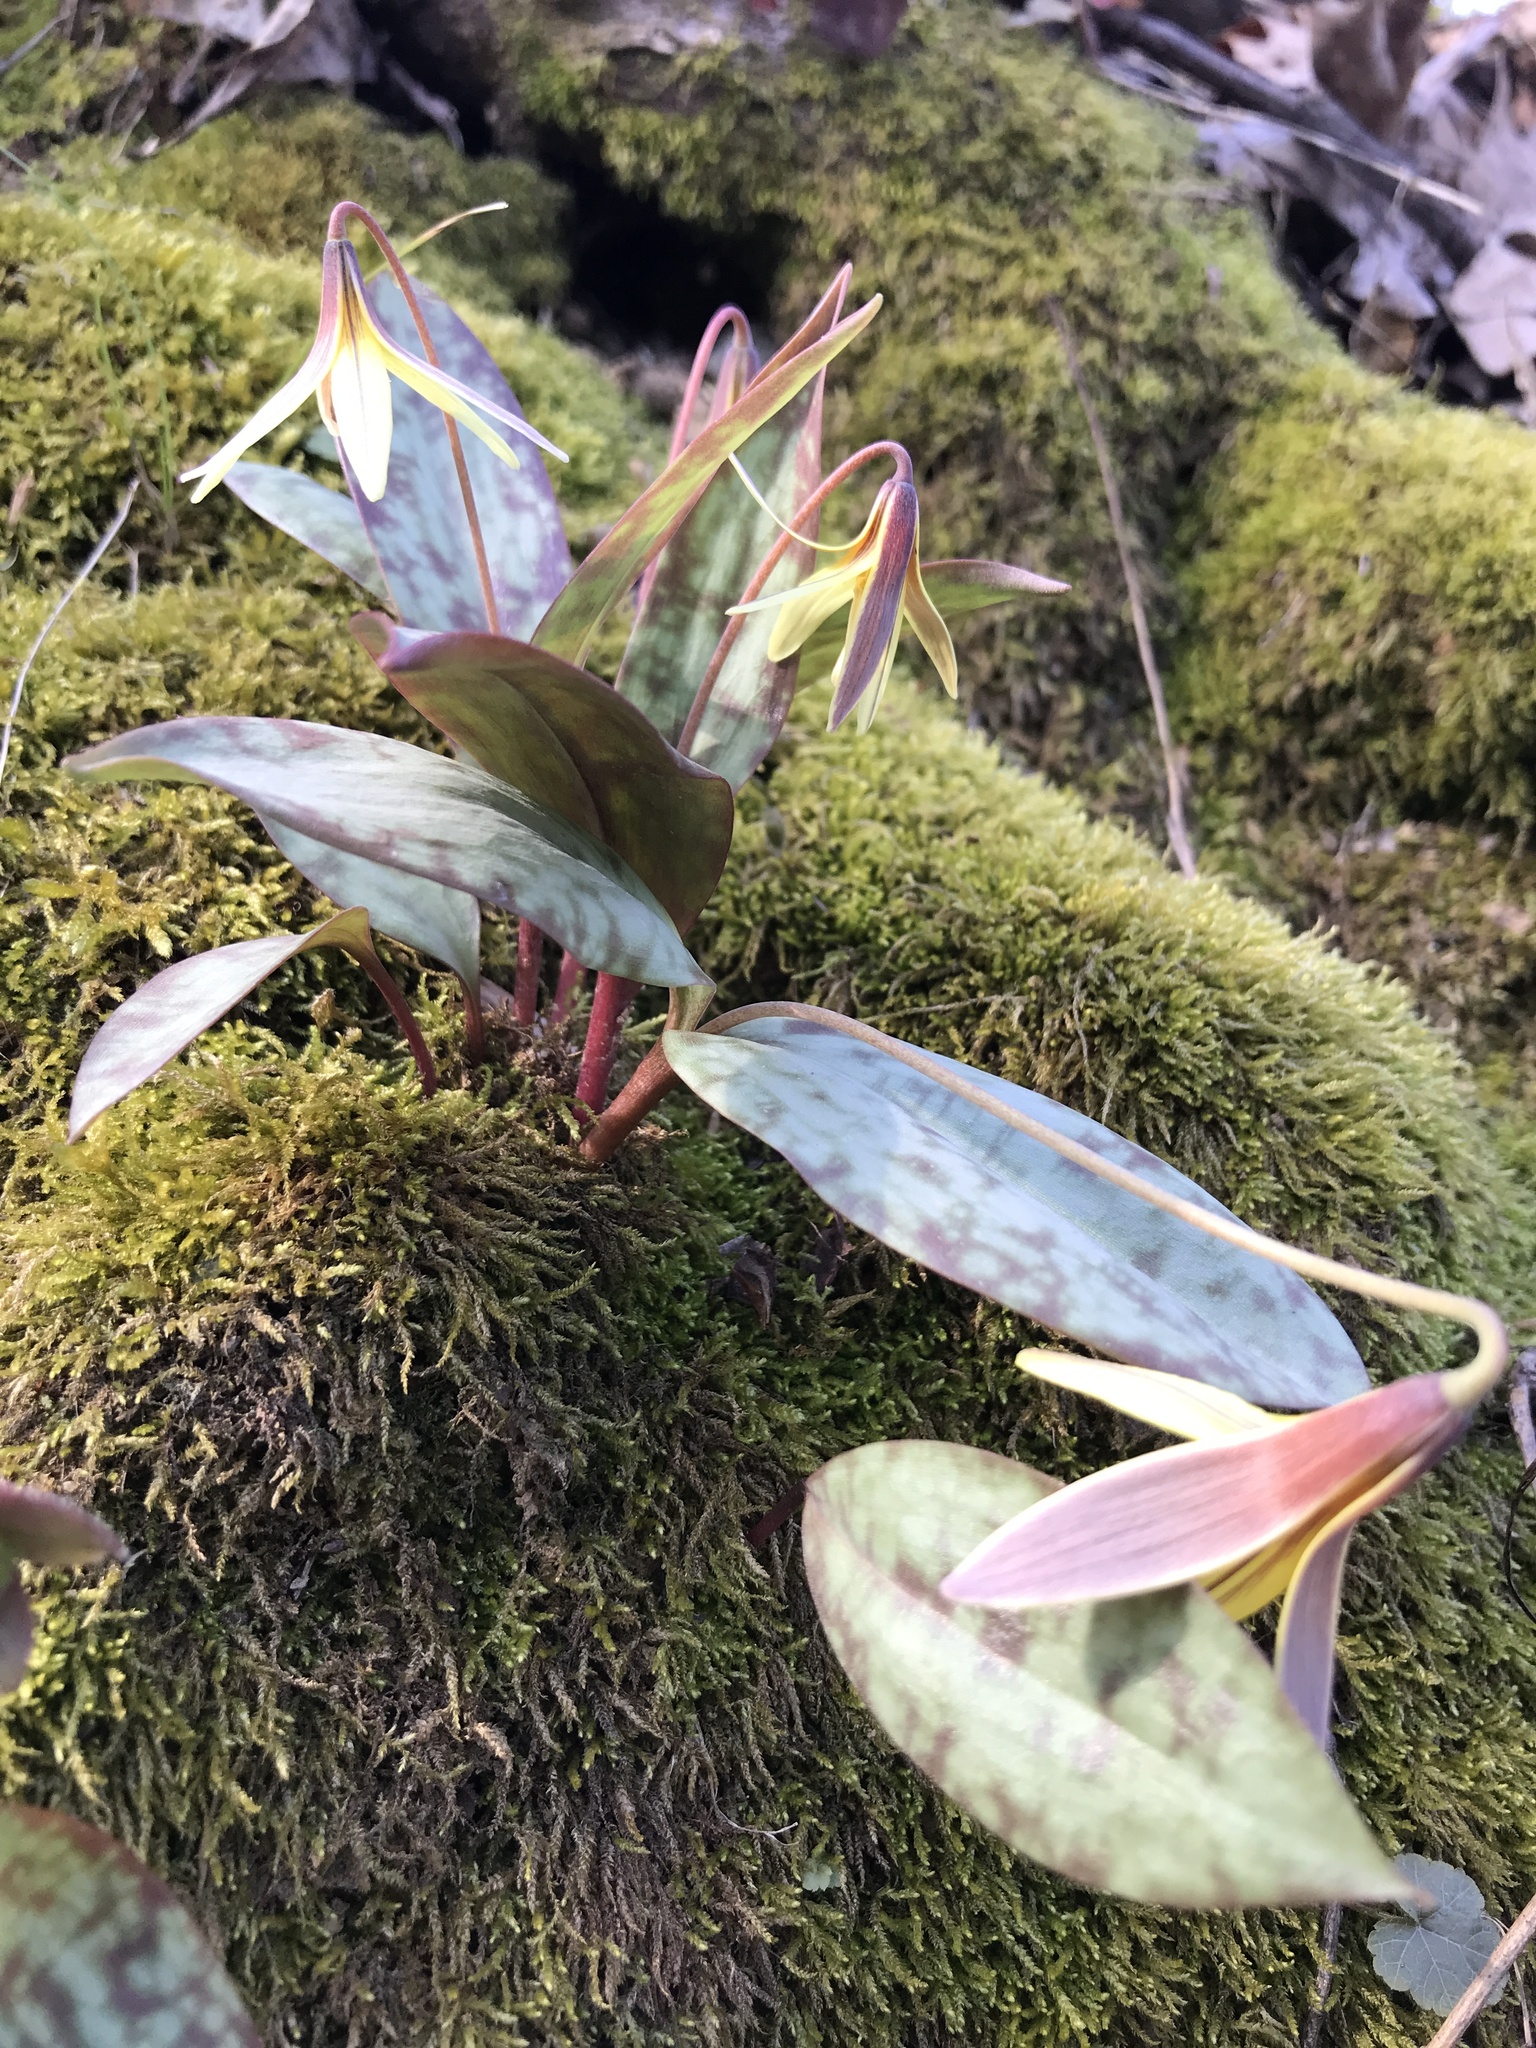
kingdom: Plantae
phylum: Tracheophyta
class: Liliopsida
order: Liliales
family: Liliaceae
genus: Erythronium
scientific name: Erythronium umbilicatum
